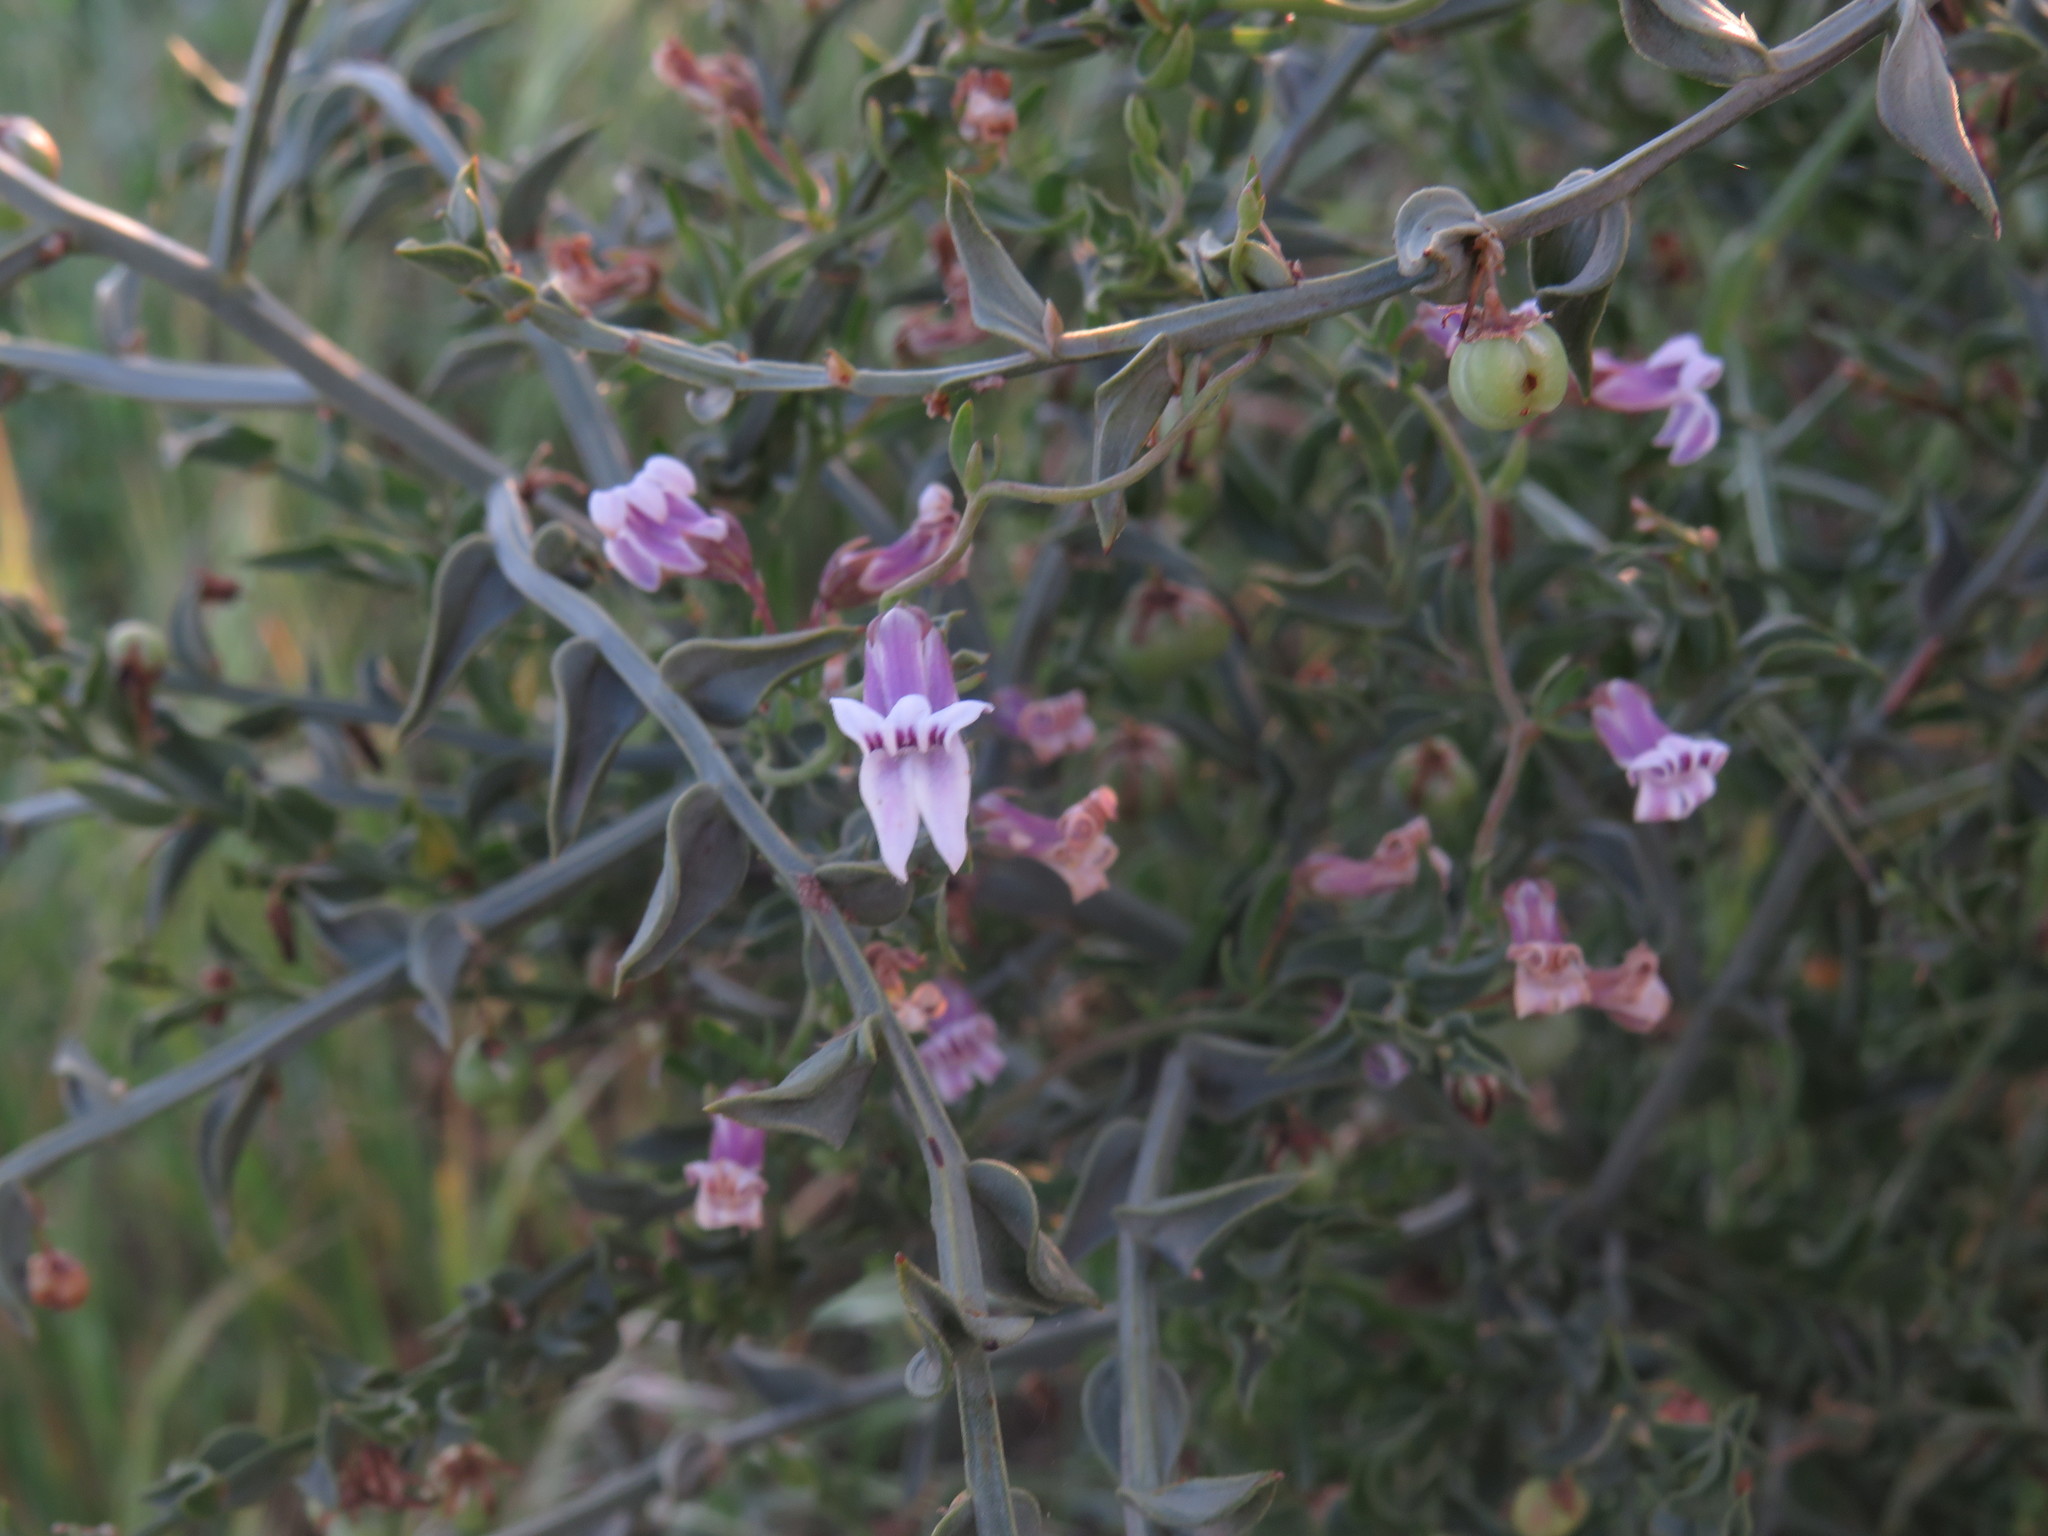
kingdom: Plantae
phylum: Tracheophyta
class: Liliopsida
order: Asparagales
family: Asparagaceae
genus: Asparagus
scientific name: Asparagus undulatus
